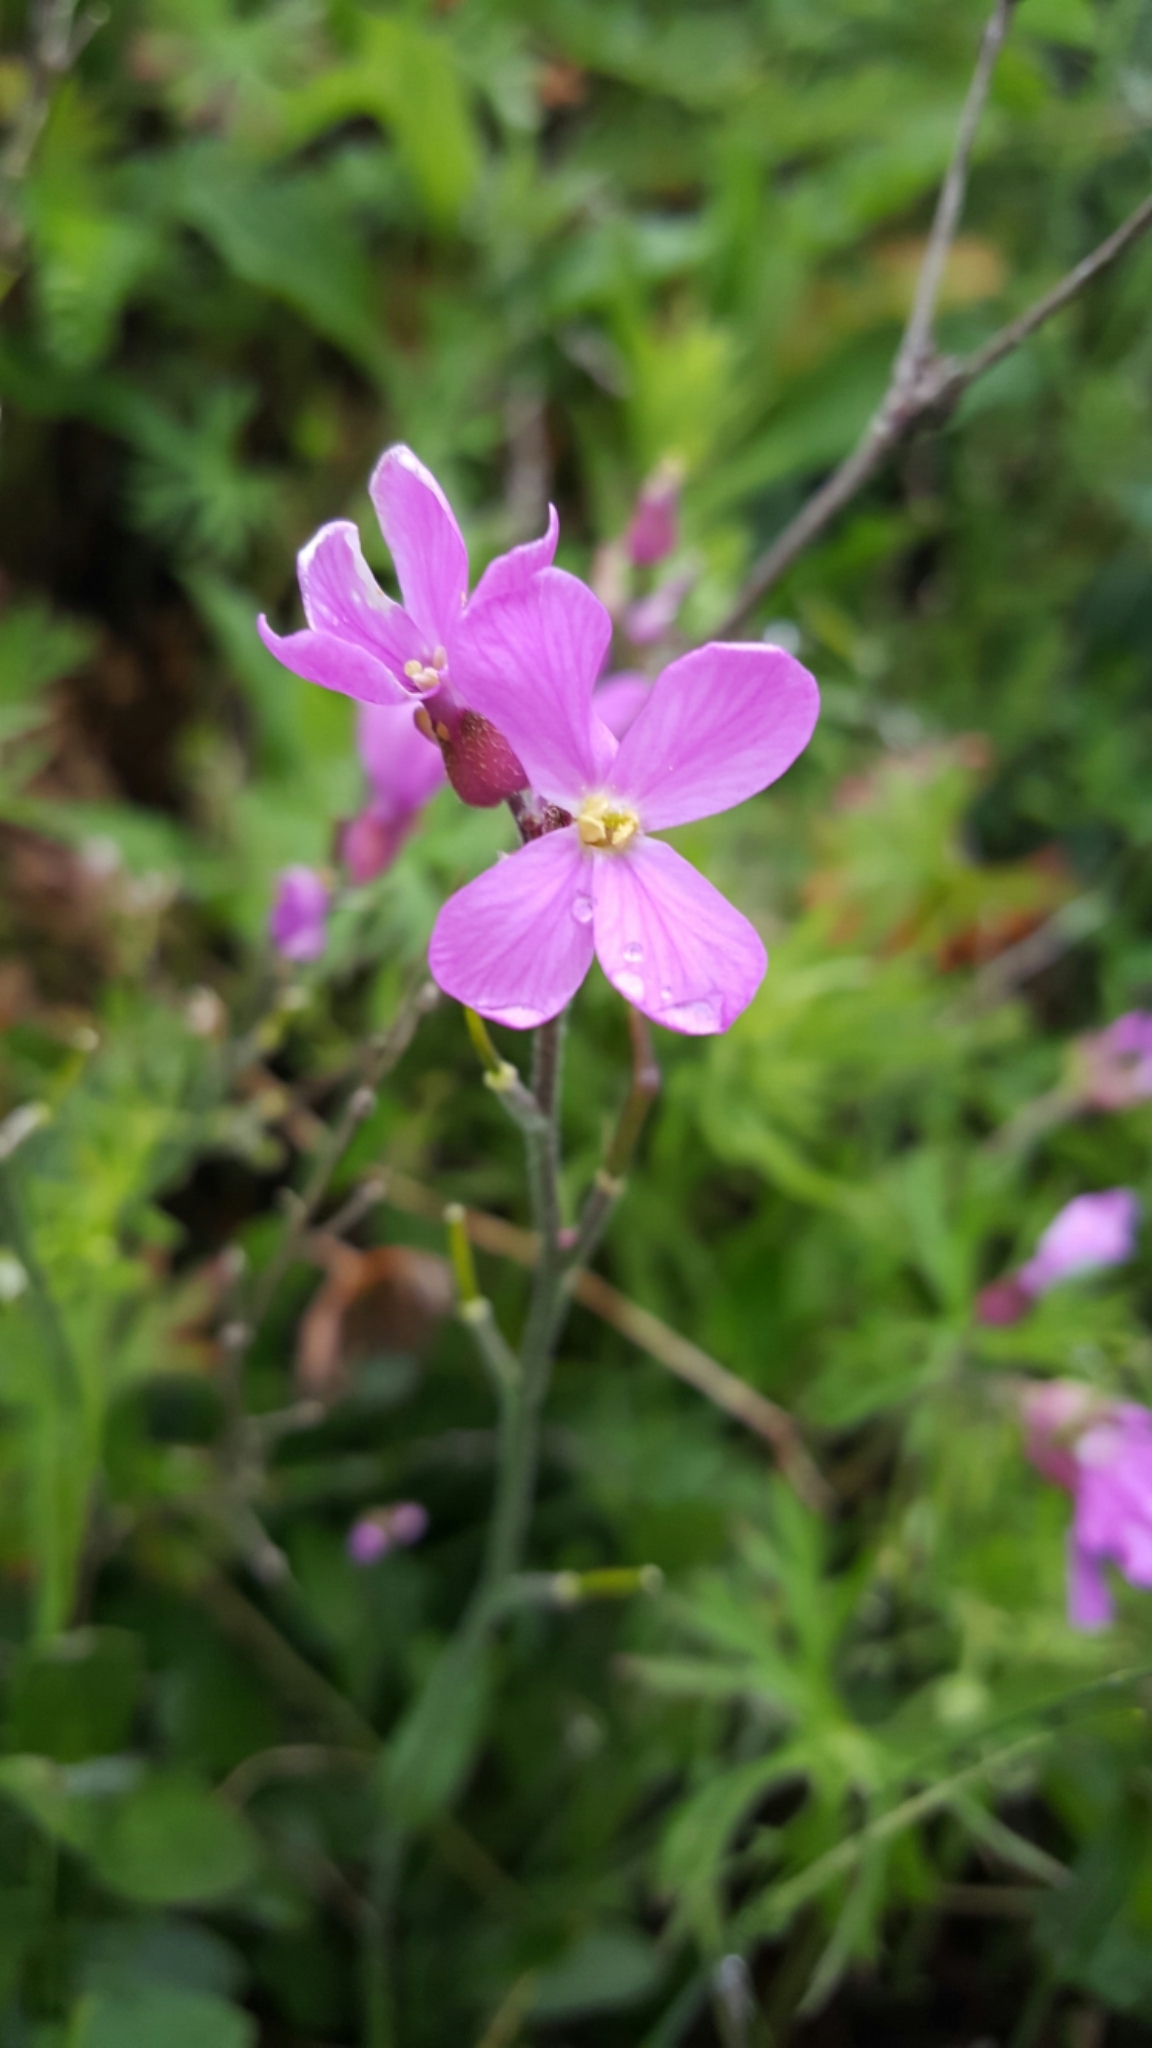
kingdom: Plantae
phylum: Tracheophyta
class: Magnoliopsida
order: Brassicales
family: Brassicaceae
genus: Arabis
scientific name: Arabis blepharophylla
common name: Rose rockcress
